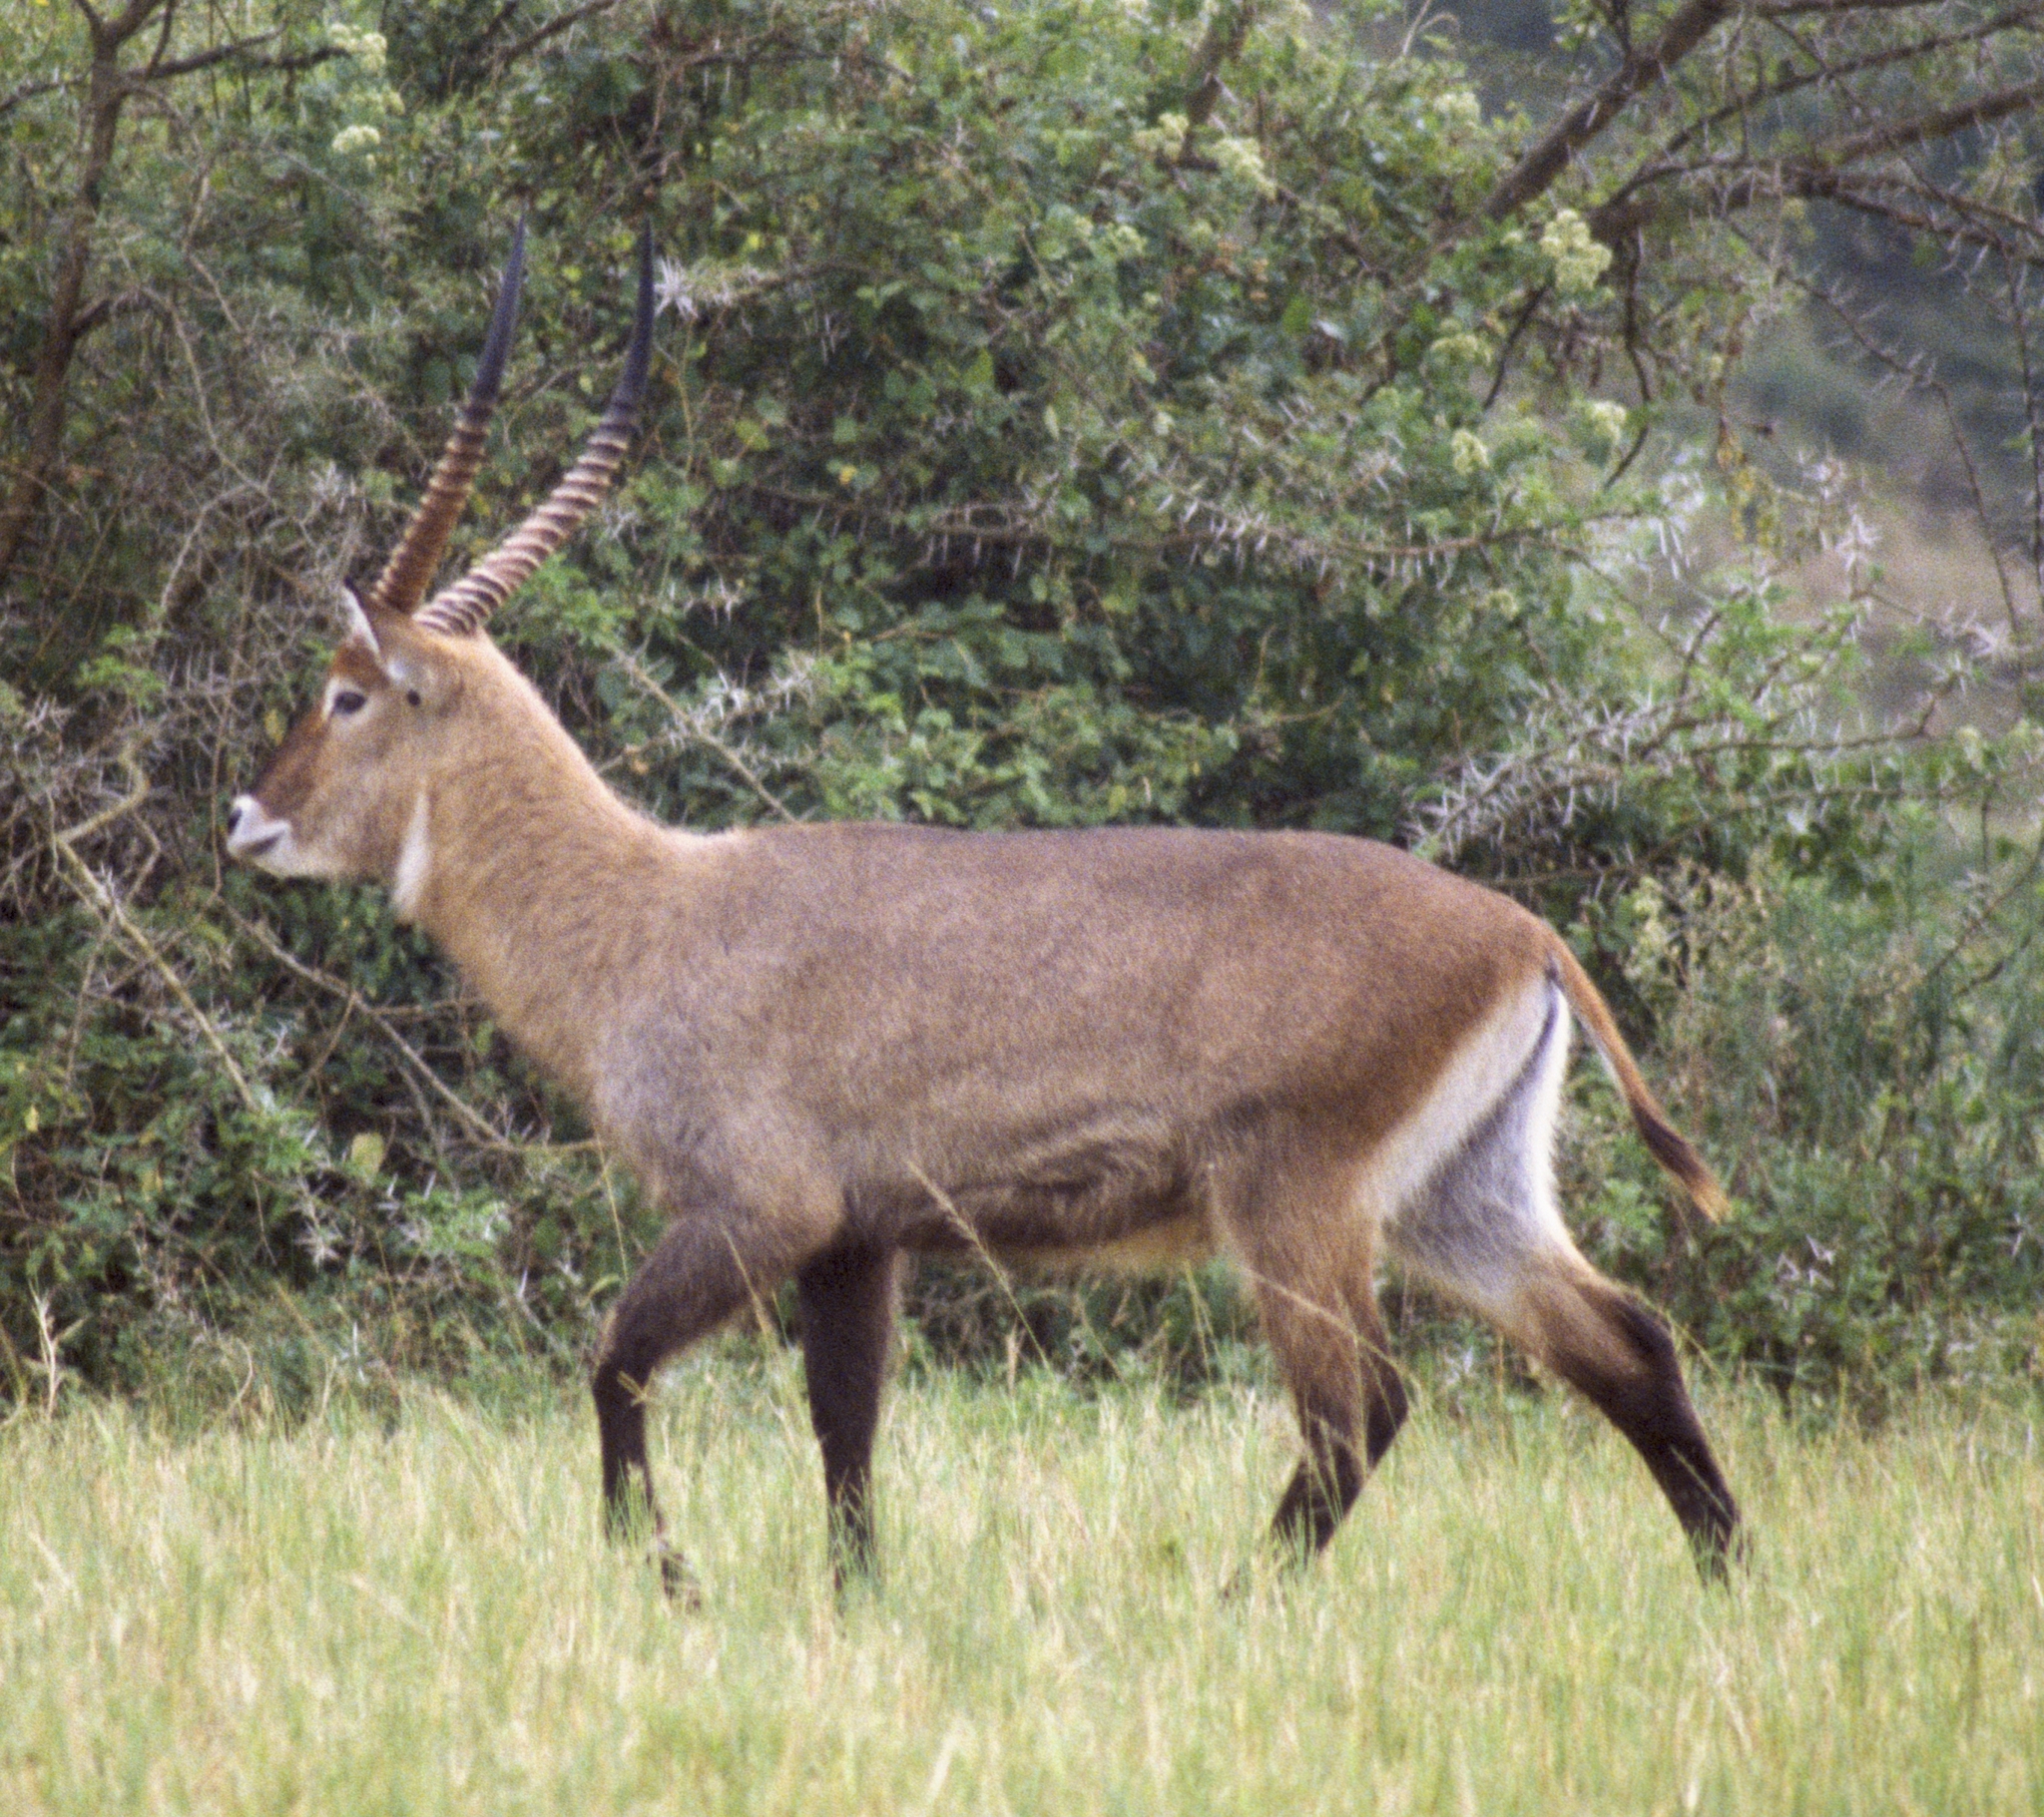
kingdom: Animalia
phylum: Chordata
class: Mammalia
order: Artiodactyla
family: Bovidae
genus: Kobus
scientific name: Kobus ellipsiprymnus
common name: Waterbuck
